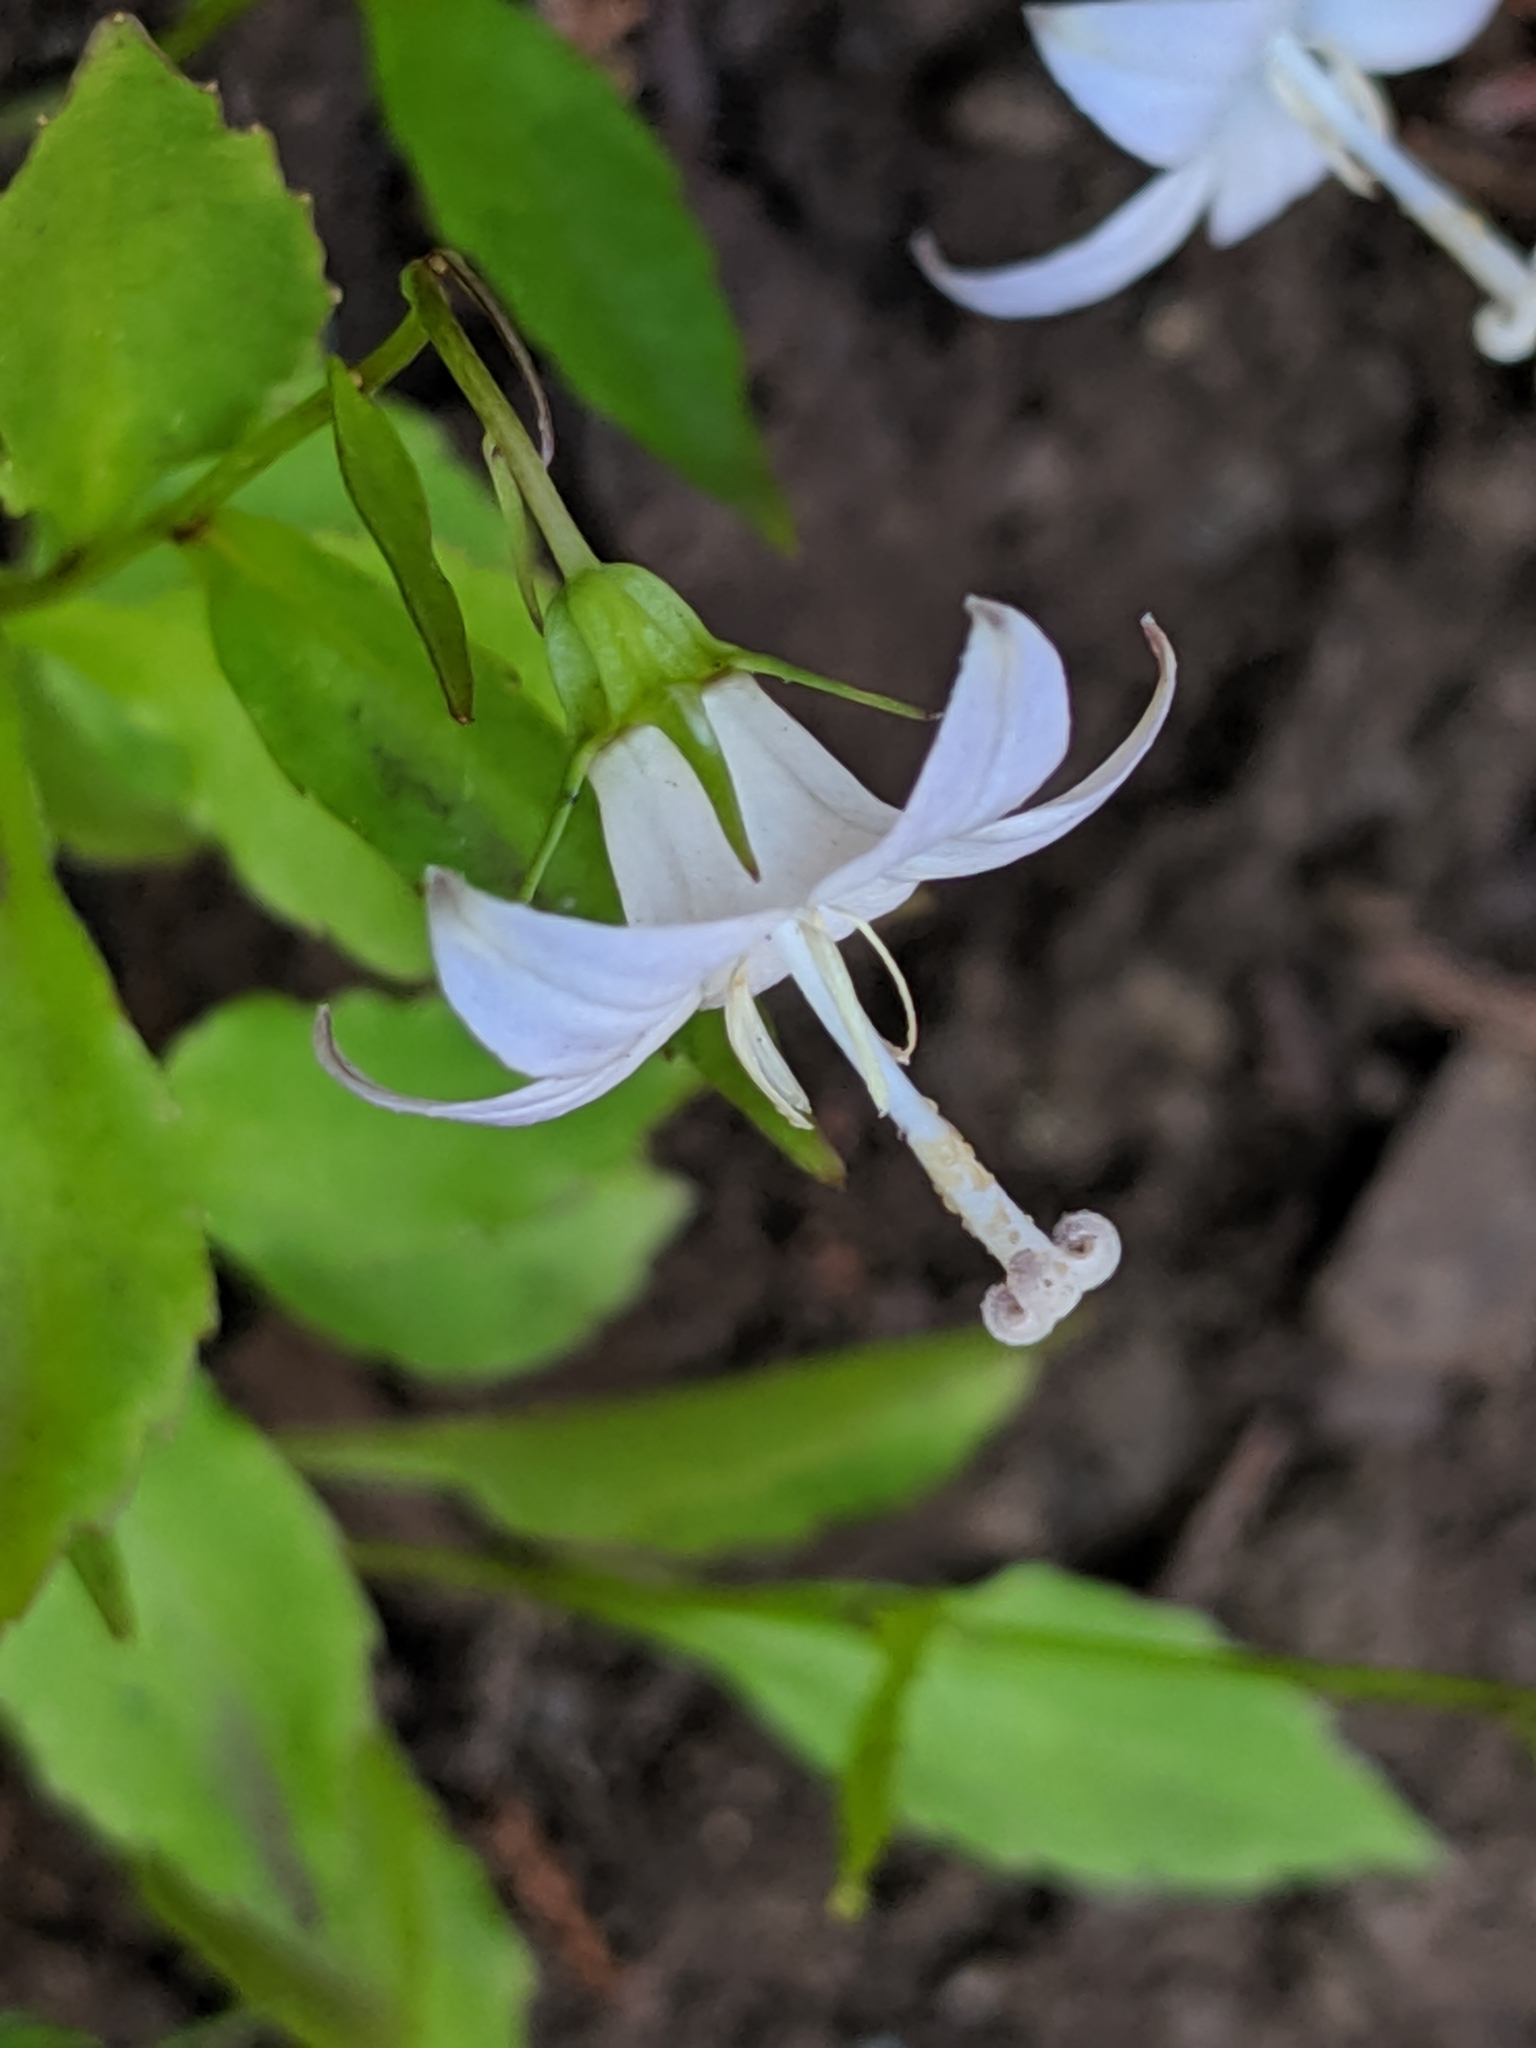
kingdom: Plantae
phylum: Tracheophyta
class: Magnoliopsida
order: Asterales
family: Campanulaceae
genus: Campanula
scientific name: Campanula scouleri
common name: Scouler's harebell
